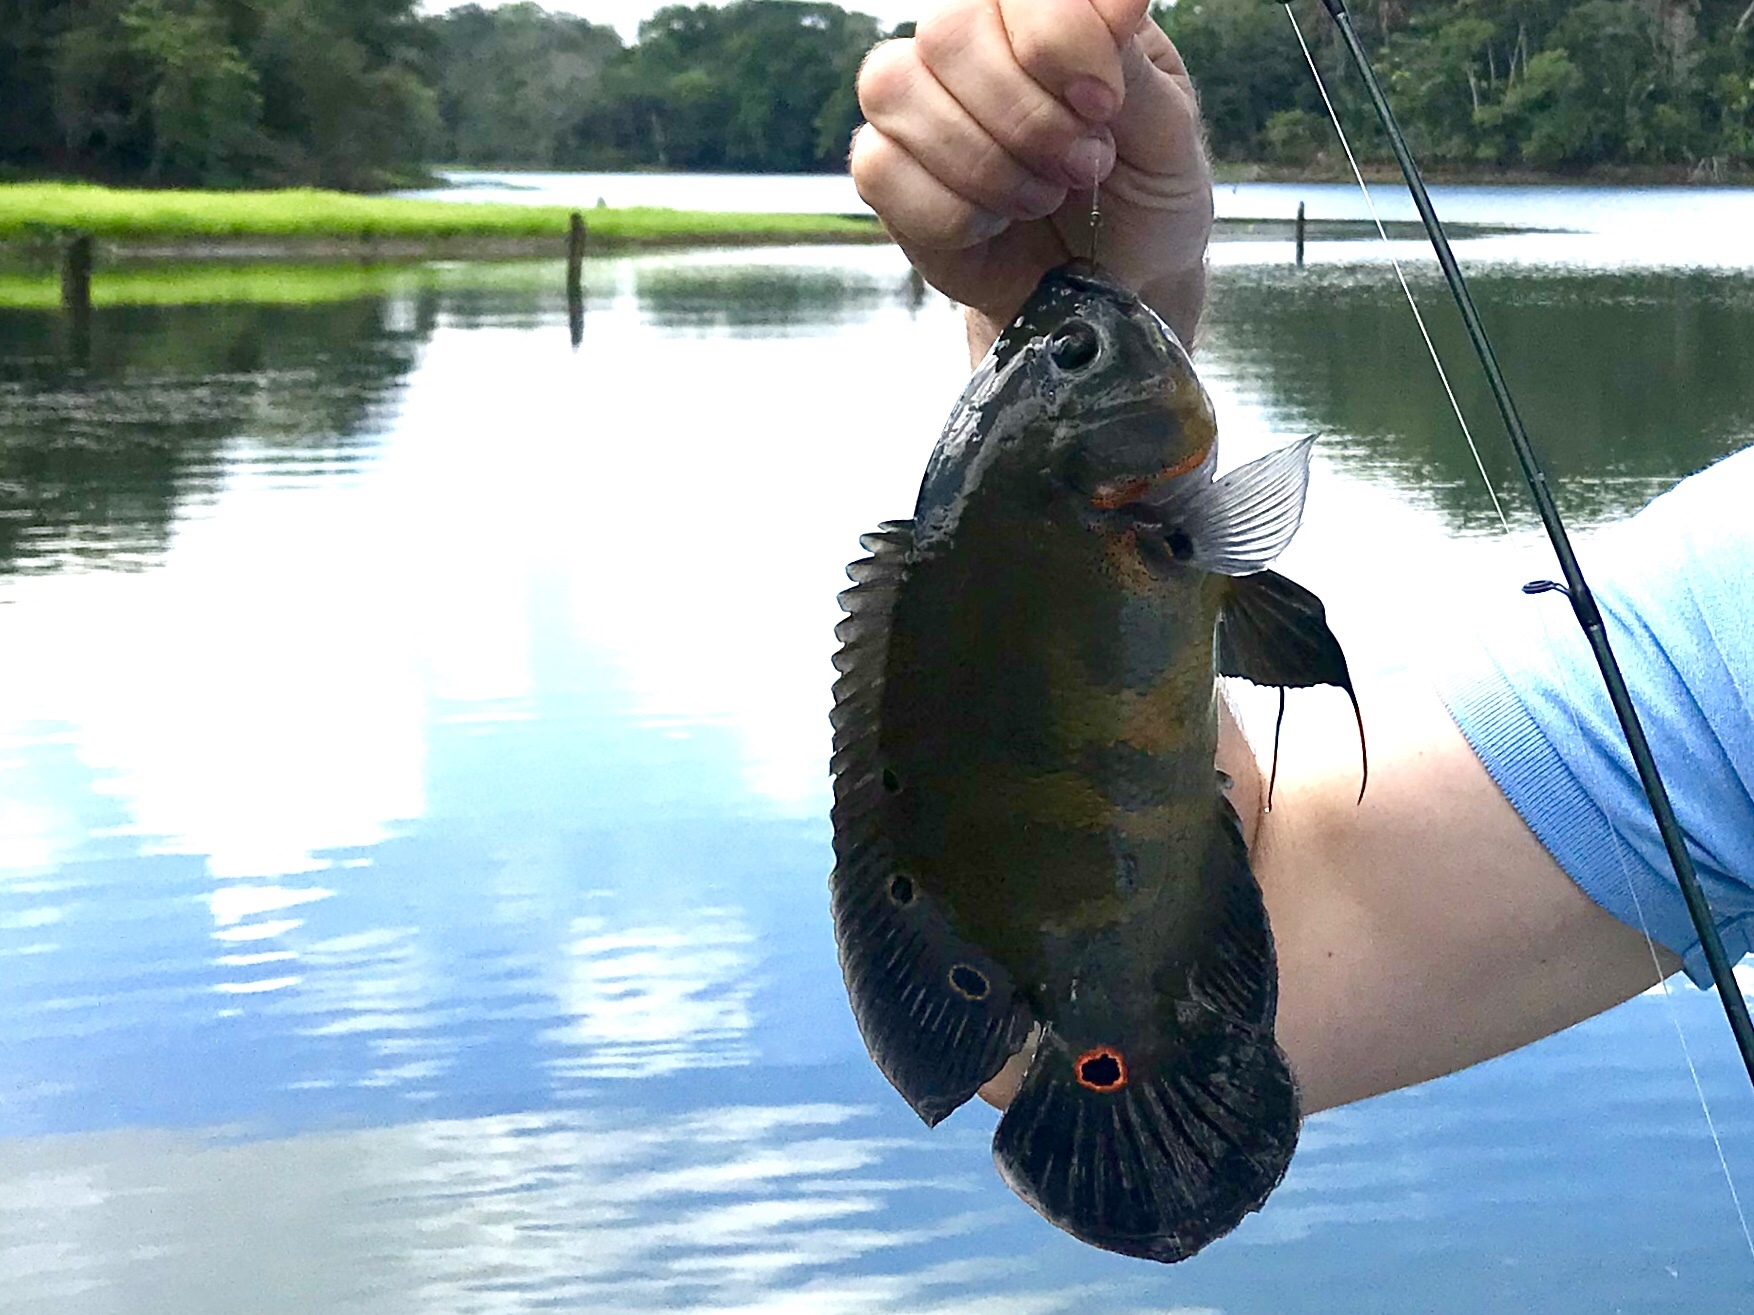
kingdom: Animalia
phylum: Chordata
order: Perciformes
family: Cichlidae
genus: Astronotus
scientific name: Astronotus ocellatus
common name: Oscar
